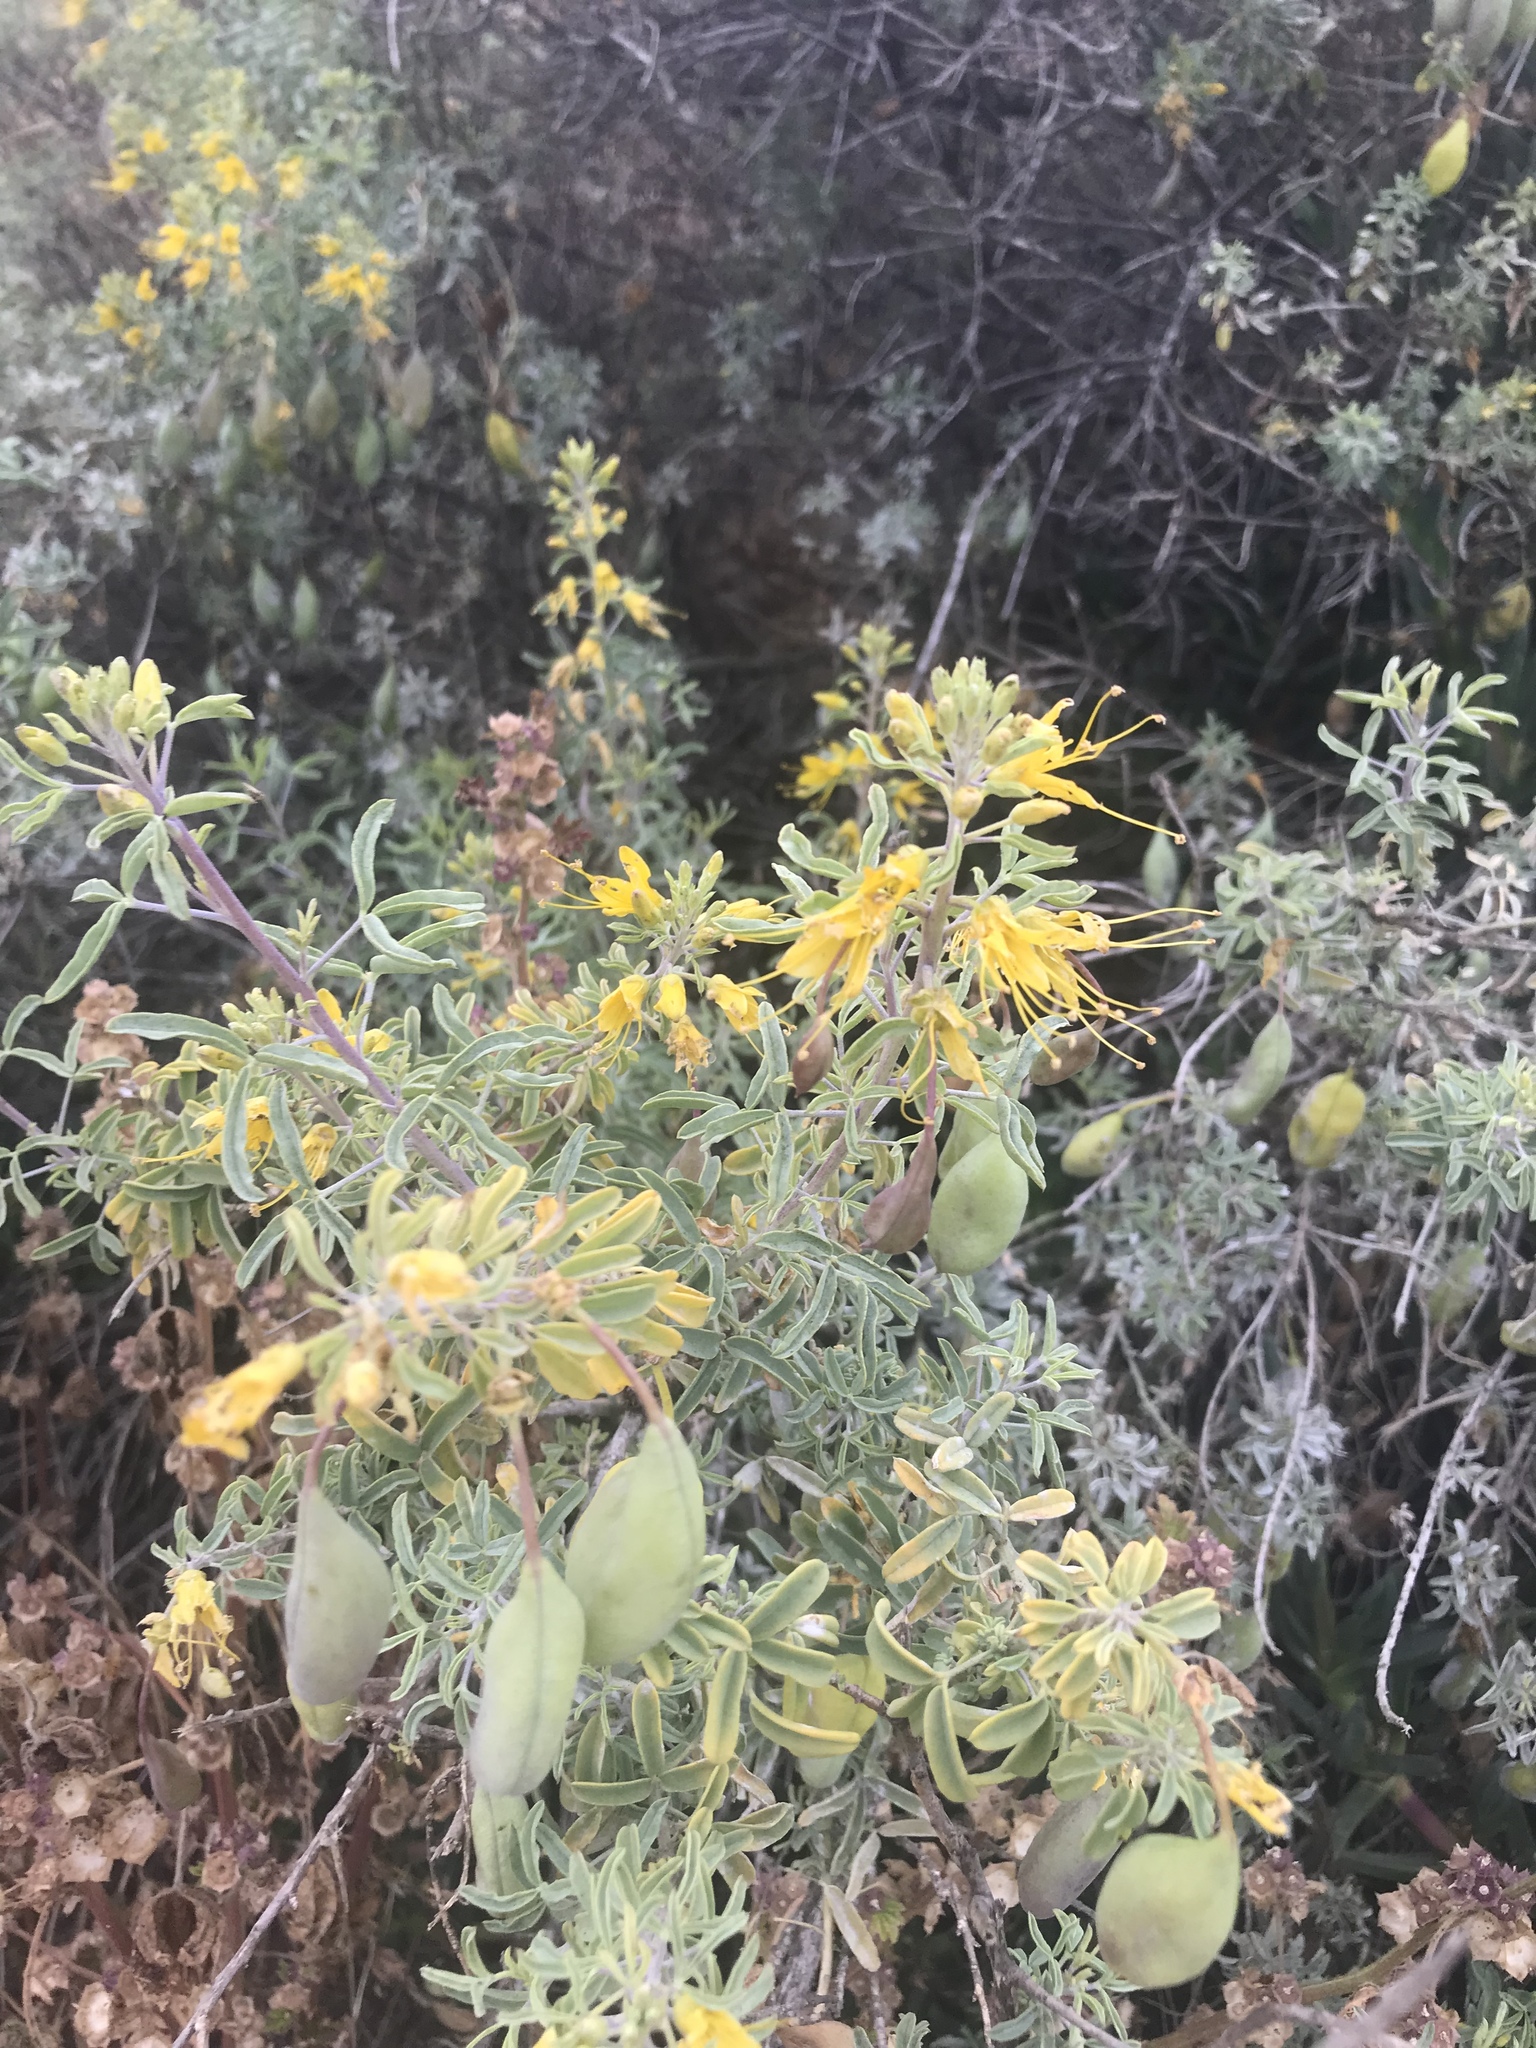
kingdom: Plantae
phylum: Tracheophyta
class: Magnoliopsida
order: Brassicales
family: Cleomaceae
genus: Cleomella
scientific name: Cleomella arborea
